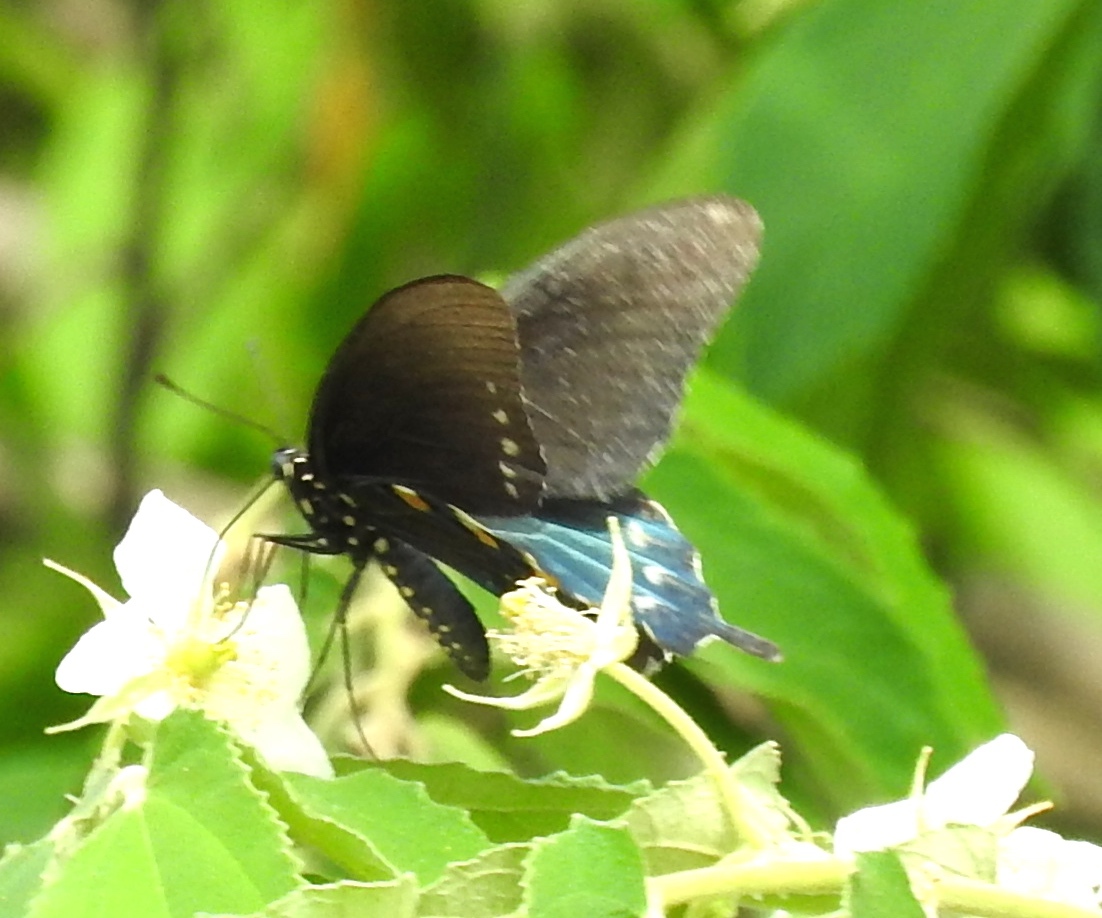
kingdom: Animalia
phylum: Arthropoda
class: Insecta
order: Lepidoptera
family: Papilionidae
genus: Battus
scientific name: Battus philenor
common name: Pipevine swallowtail
